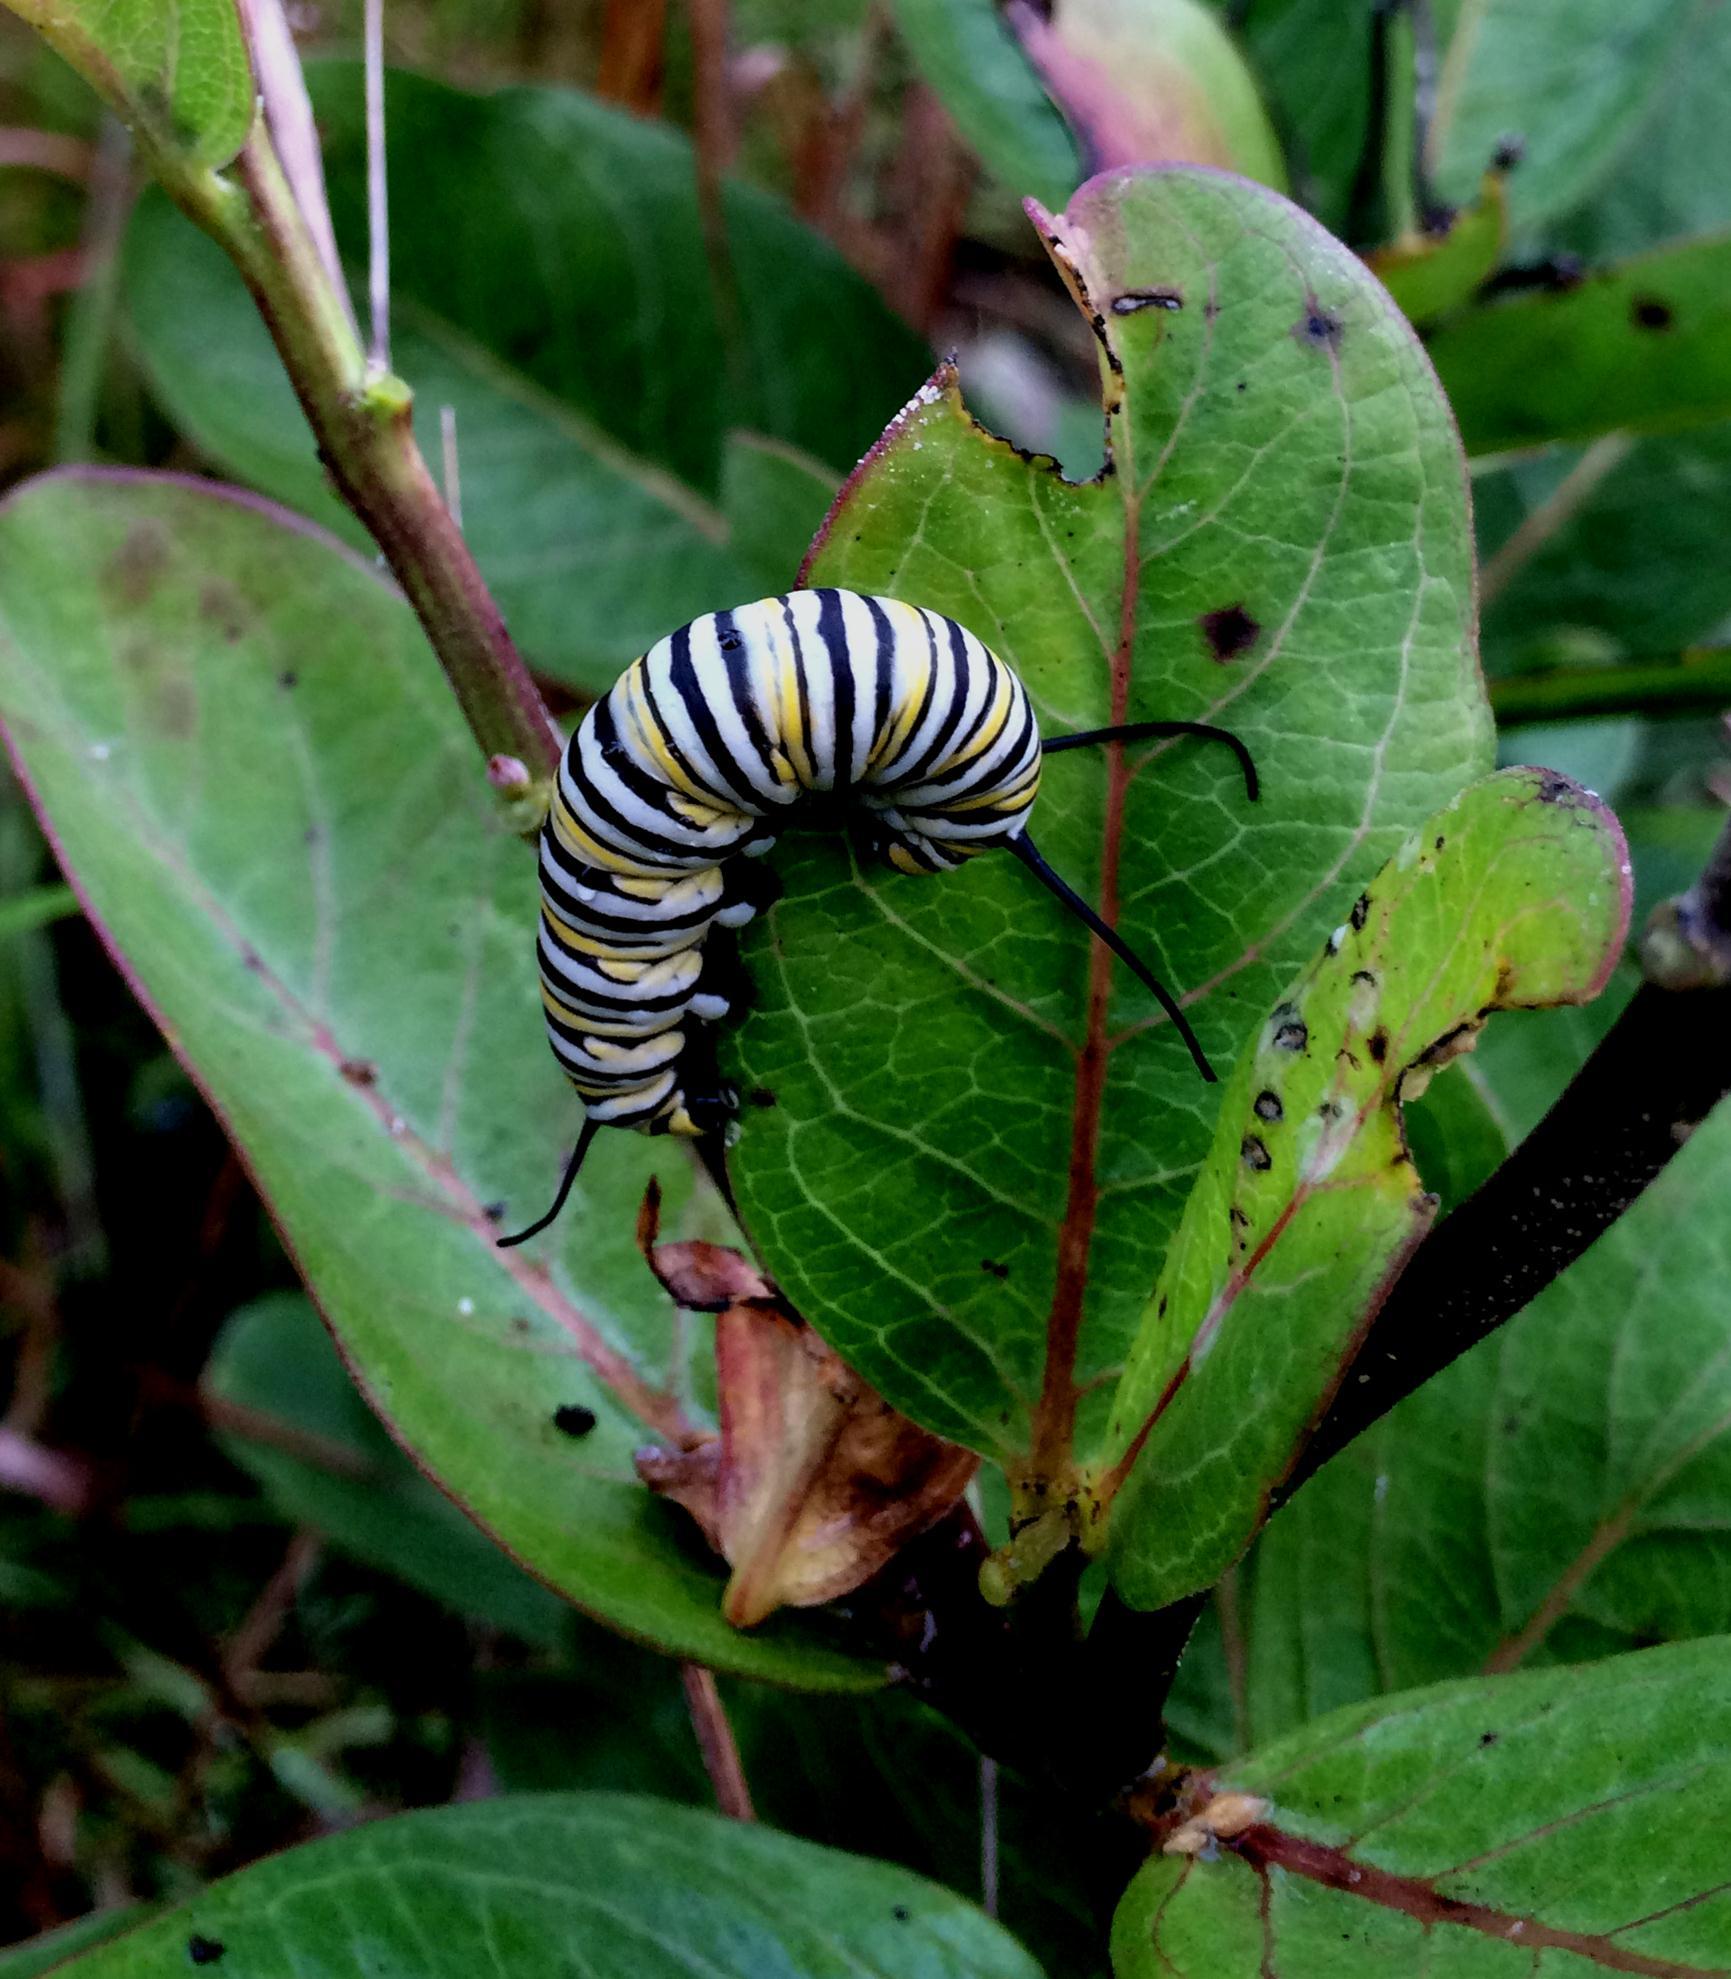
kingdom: Animalia
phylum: Arthropoda
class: Insecta
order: Lepidoptera
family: Nymphalidae
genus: Danaus
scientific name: Danaus plexippus
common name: Monarch
